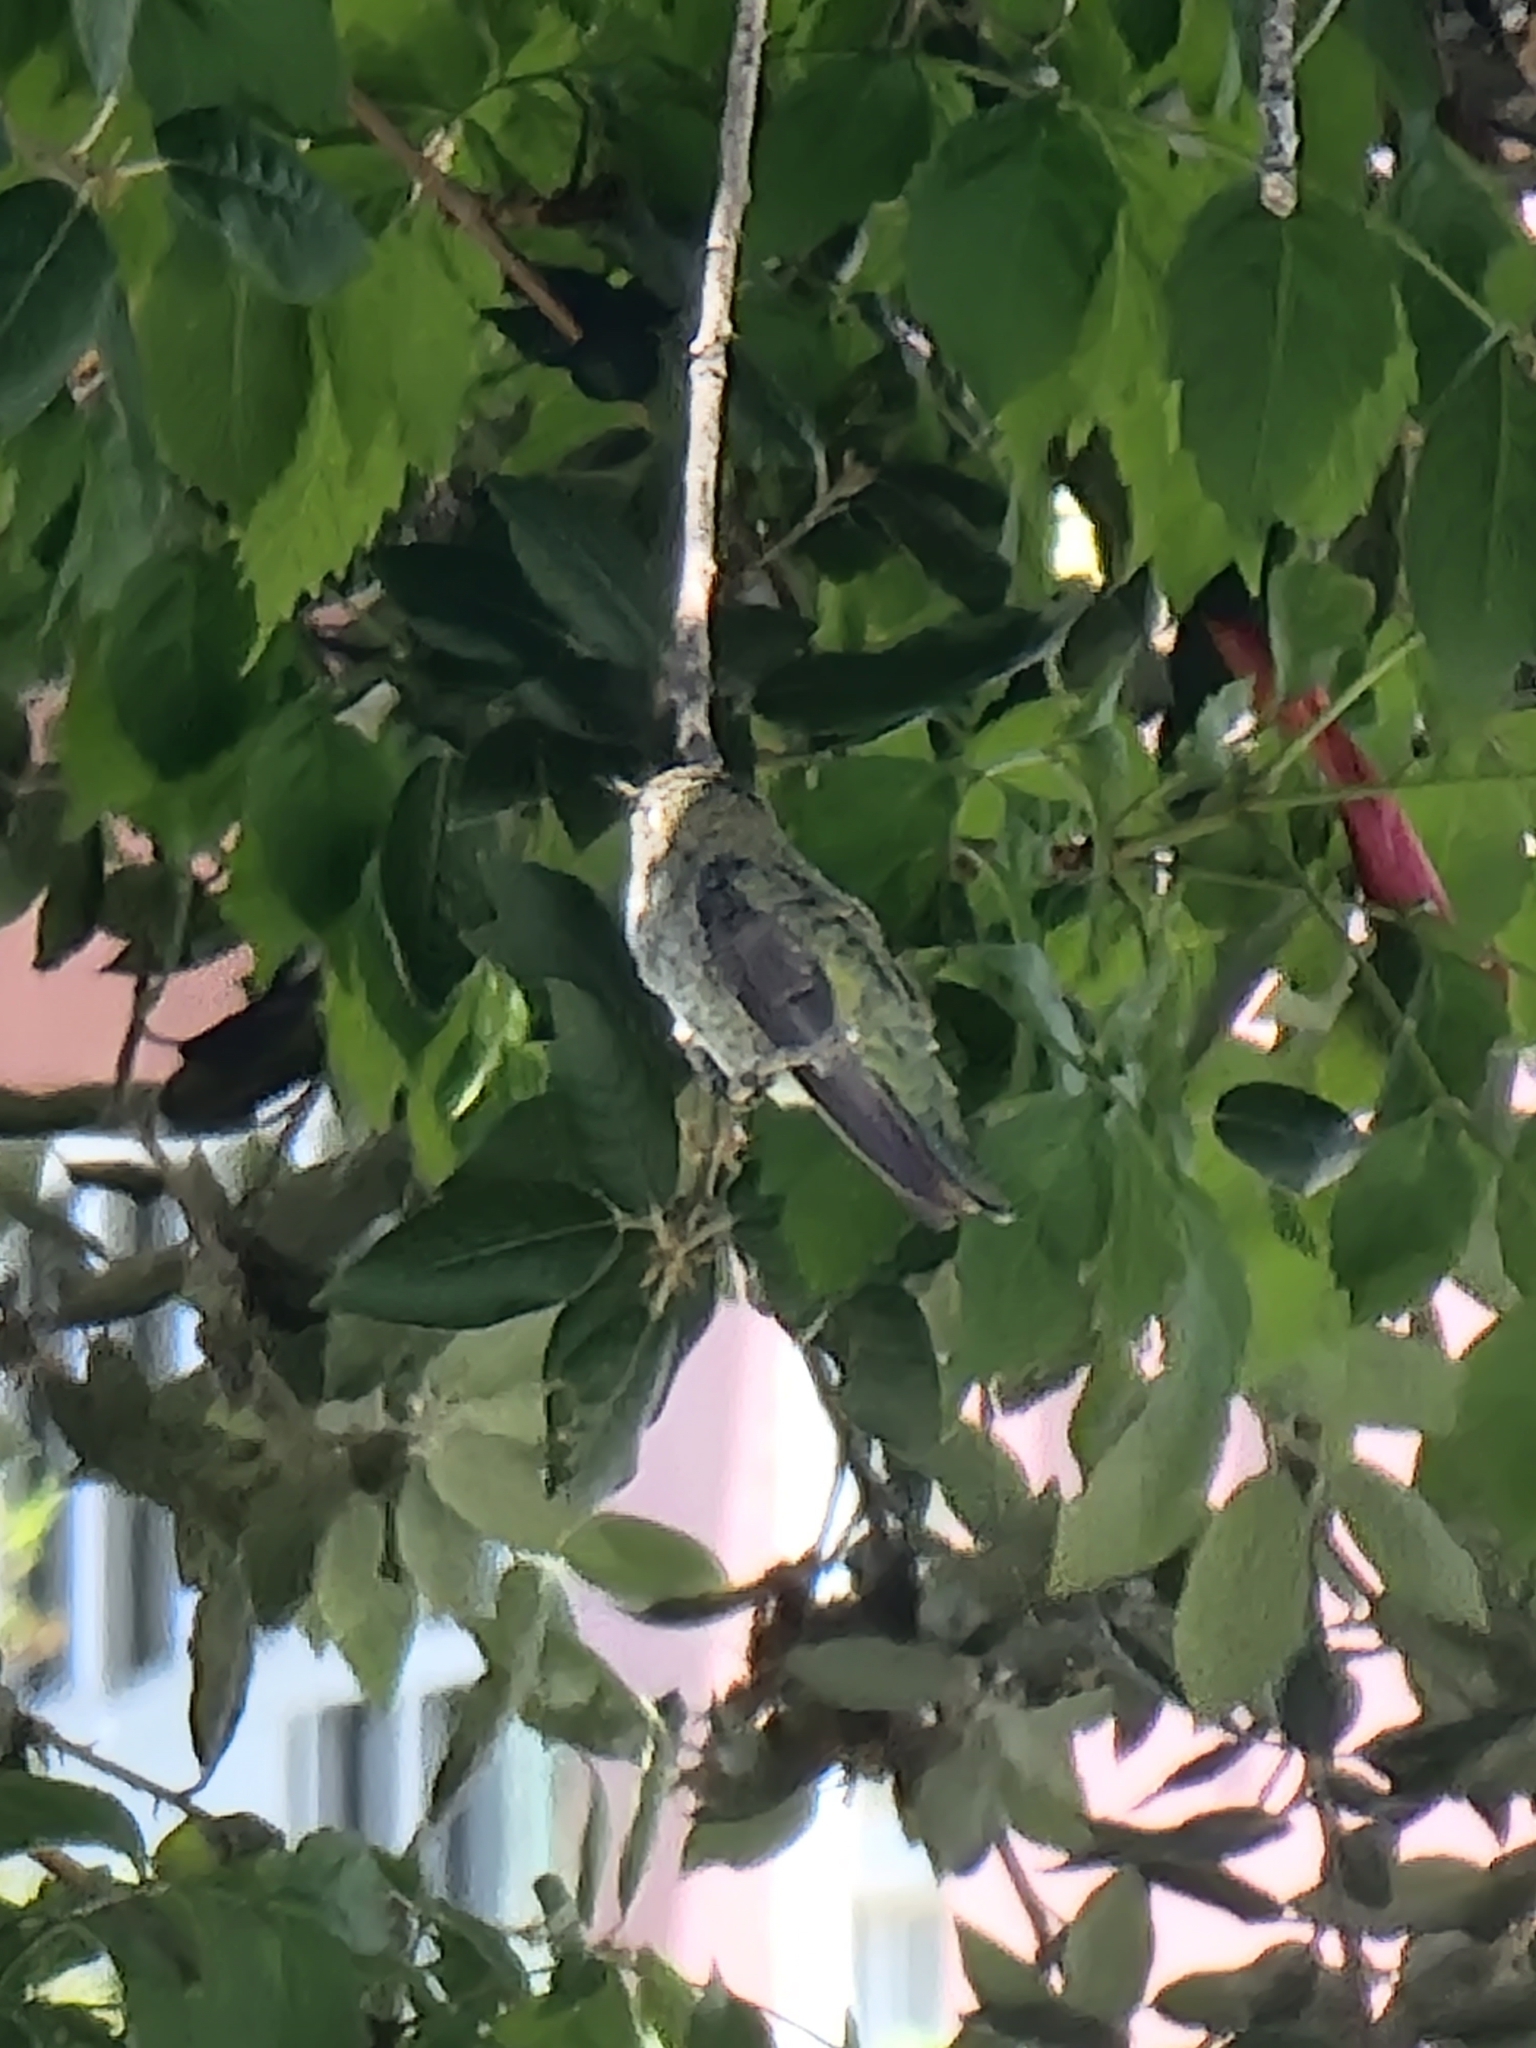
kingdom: Animalia
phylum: Chordata
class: Aves
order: Apodiformes
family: Trochilidae
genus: Calypte
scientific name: Calypte anna
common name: Anna's hummingbird
